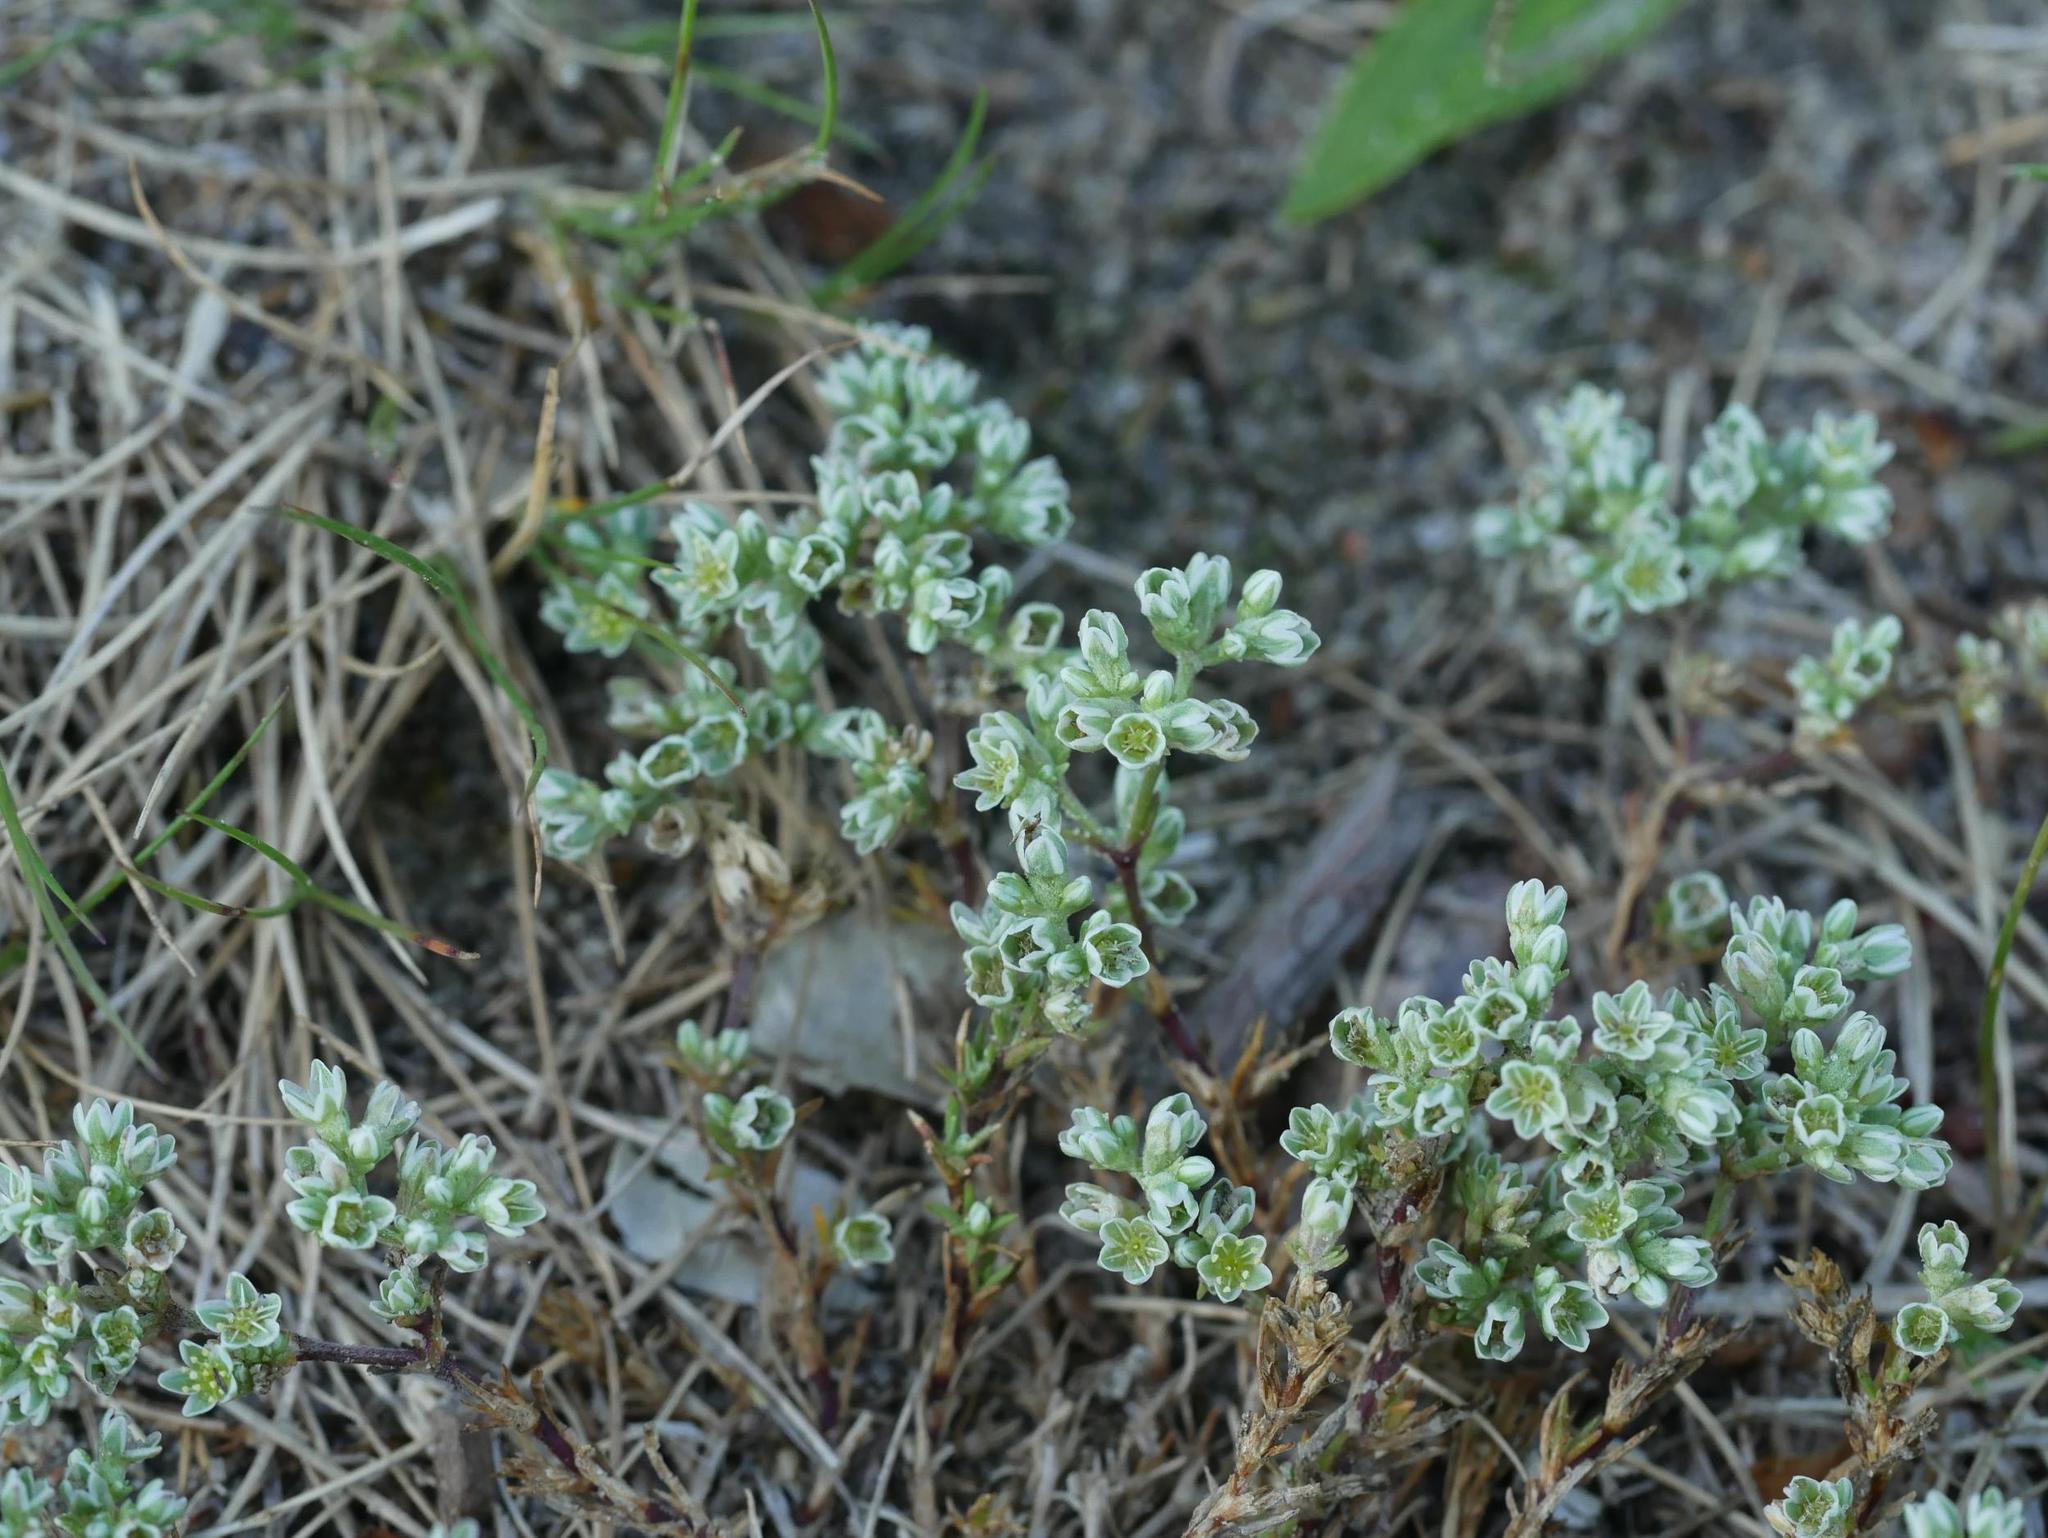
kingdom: Plantae
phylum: Tracheophyta
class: Magnoliopsida
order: Caryophyllales
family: Caryophyllaceae
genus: Scleranthus
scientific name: Scleranthus perennis
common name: Perennial knawel
